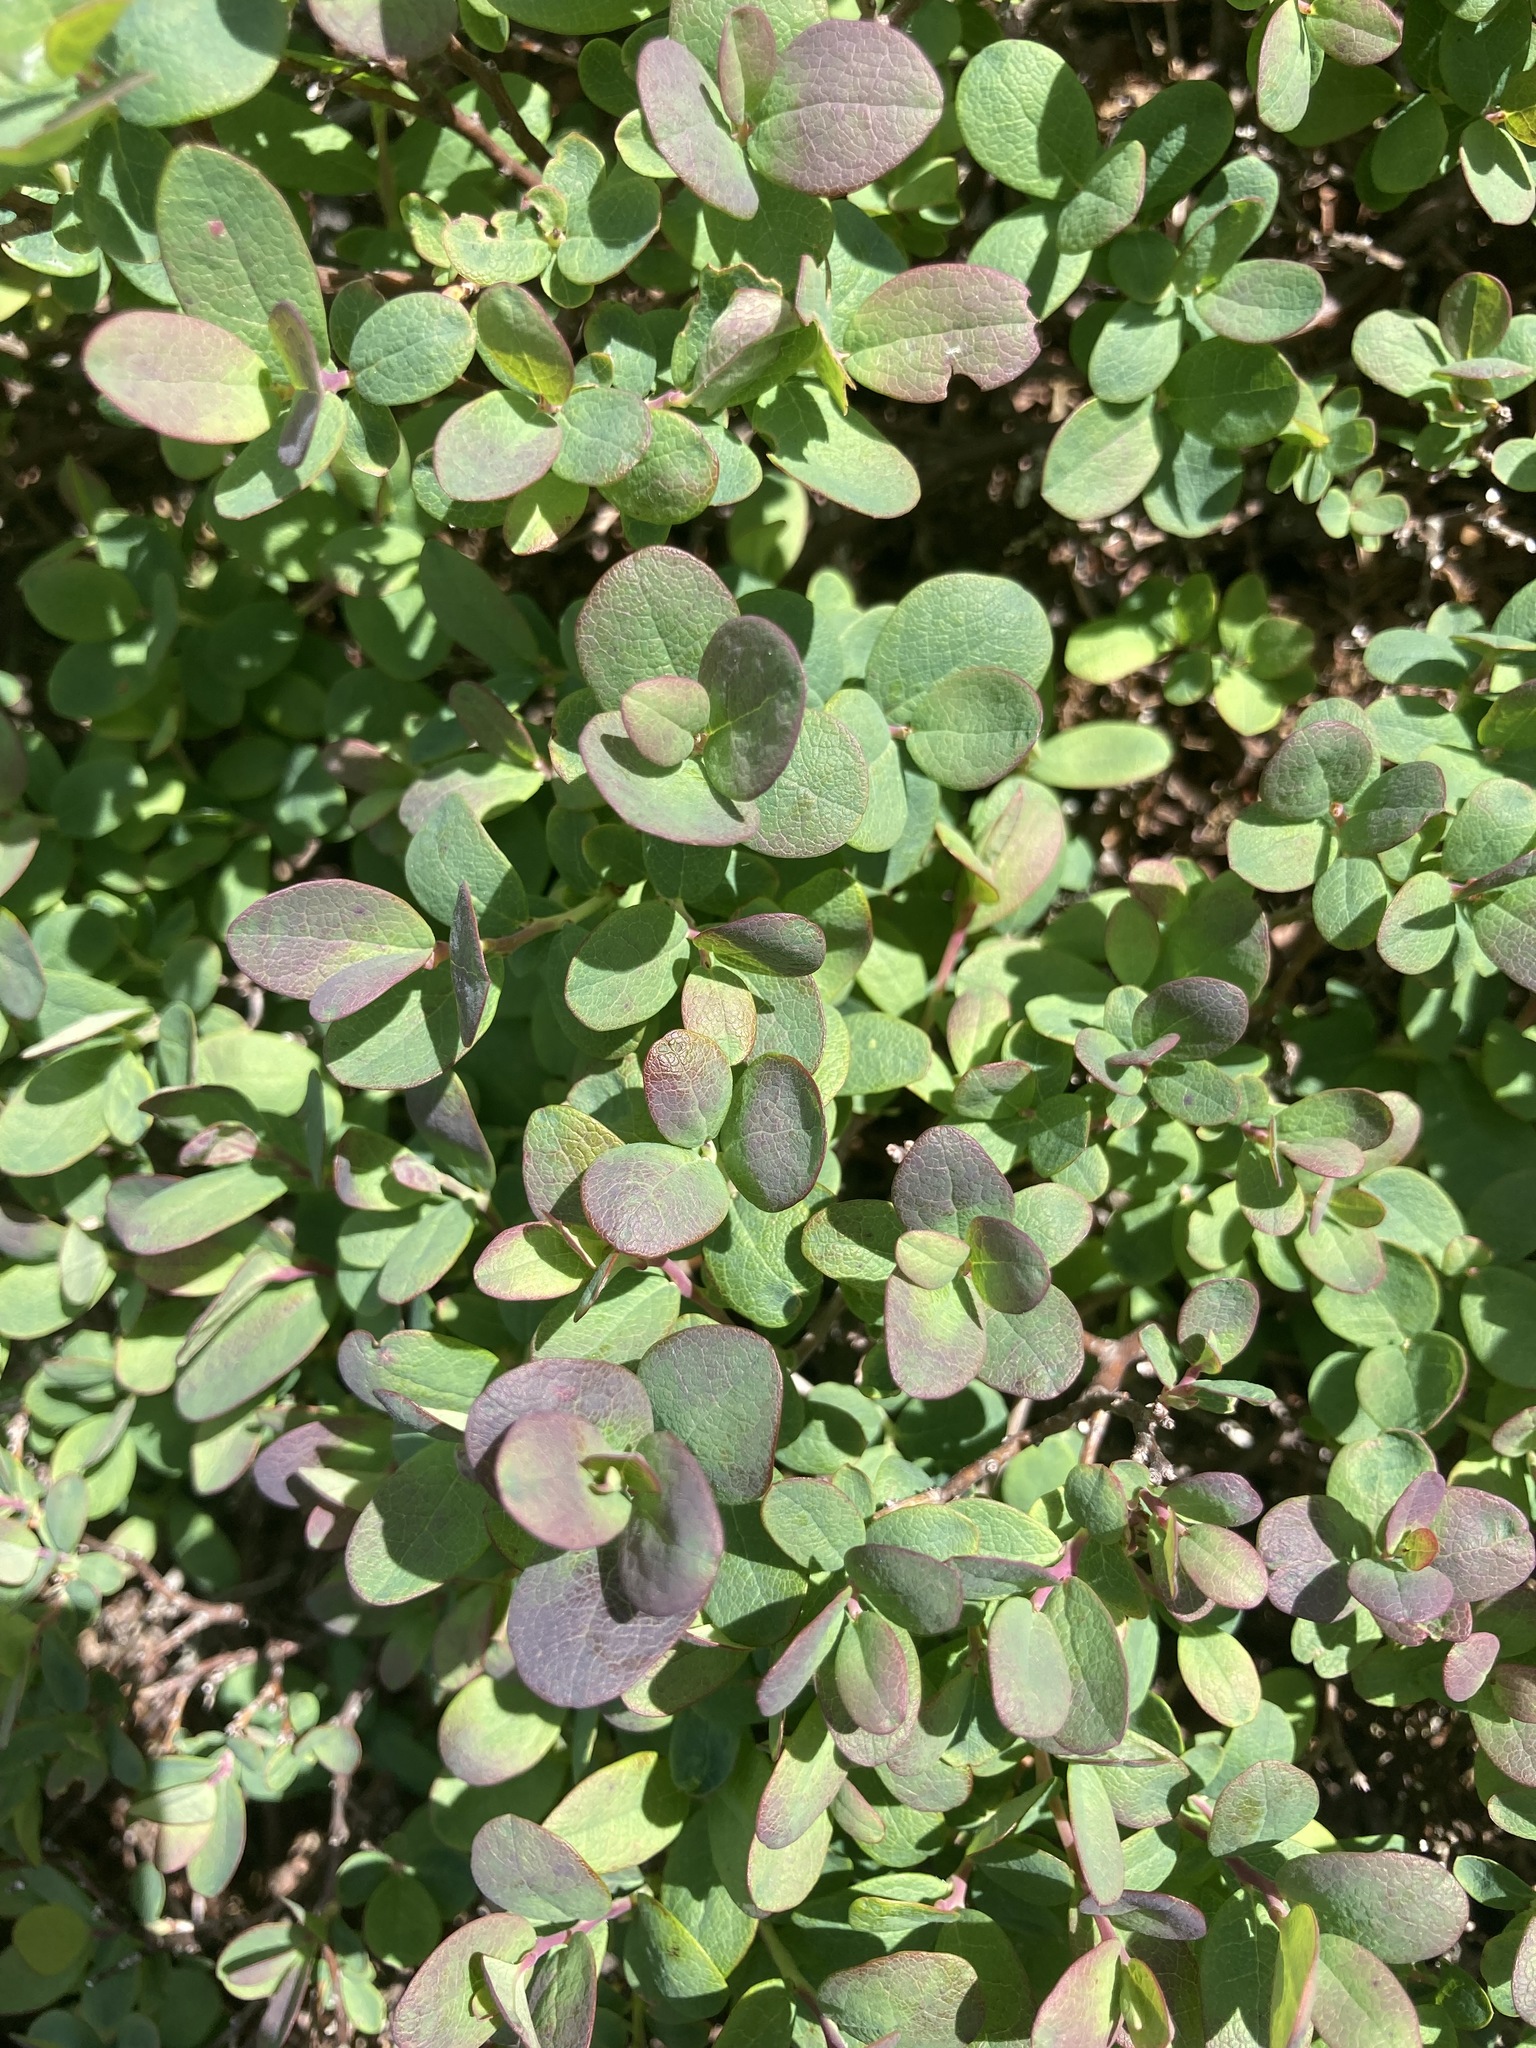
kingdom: Plantae
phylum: Tracheophyta
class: Magnoliopsida
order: Ericales
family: Ericaceae
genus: Vaccinium
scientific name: Vaccinium uliginosum
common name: Bog bilberry
